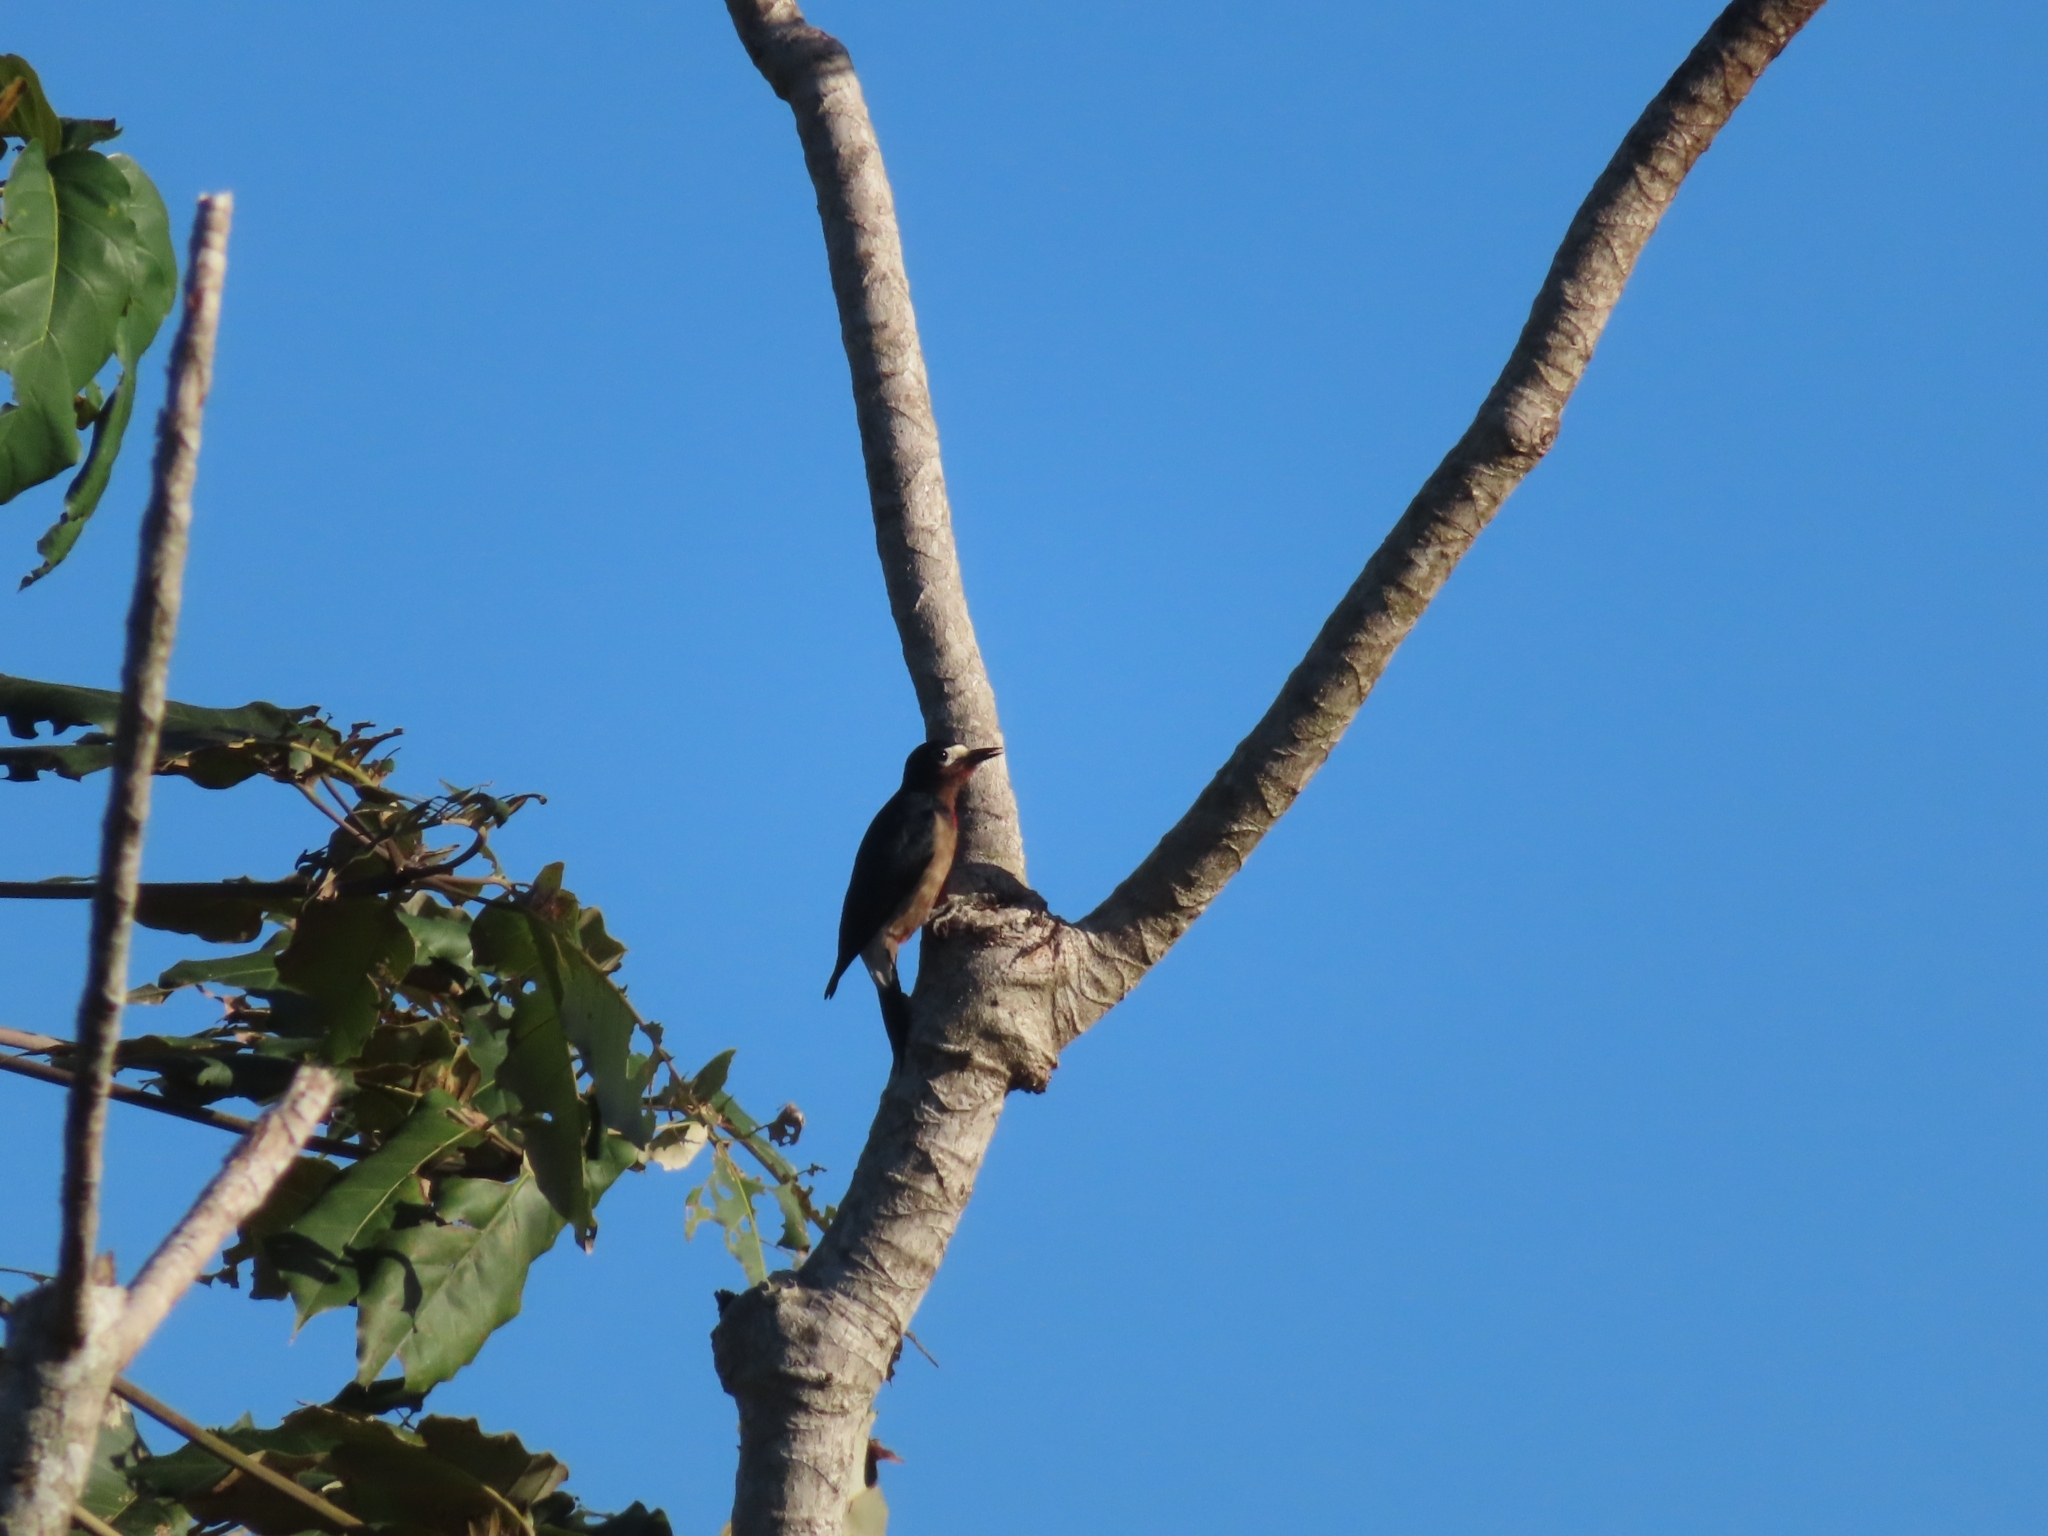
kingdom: Animalia
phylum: Chordata
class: Aves
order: Piciformes
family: Picidae
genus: Melanerpes
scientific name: Melanerpes portoricensis
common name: Puerto rican woodpecker
